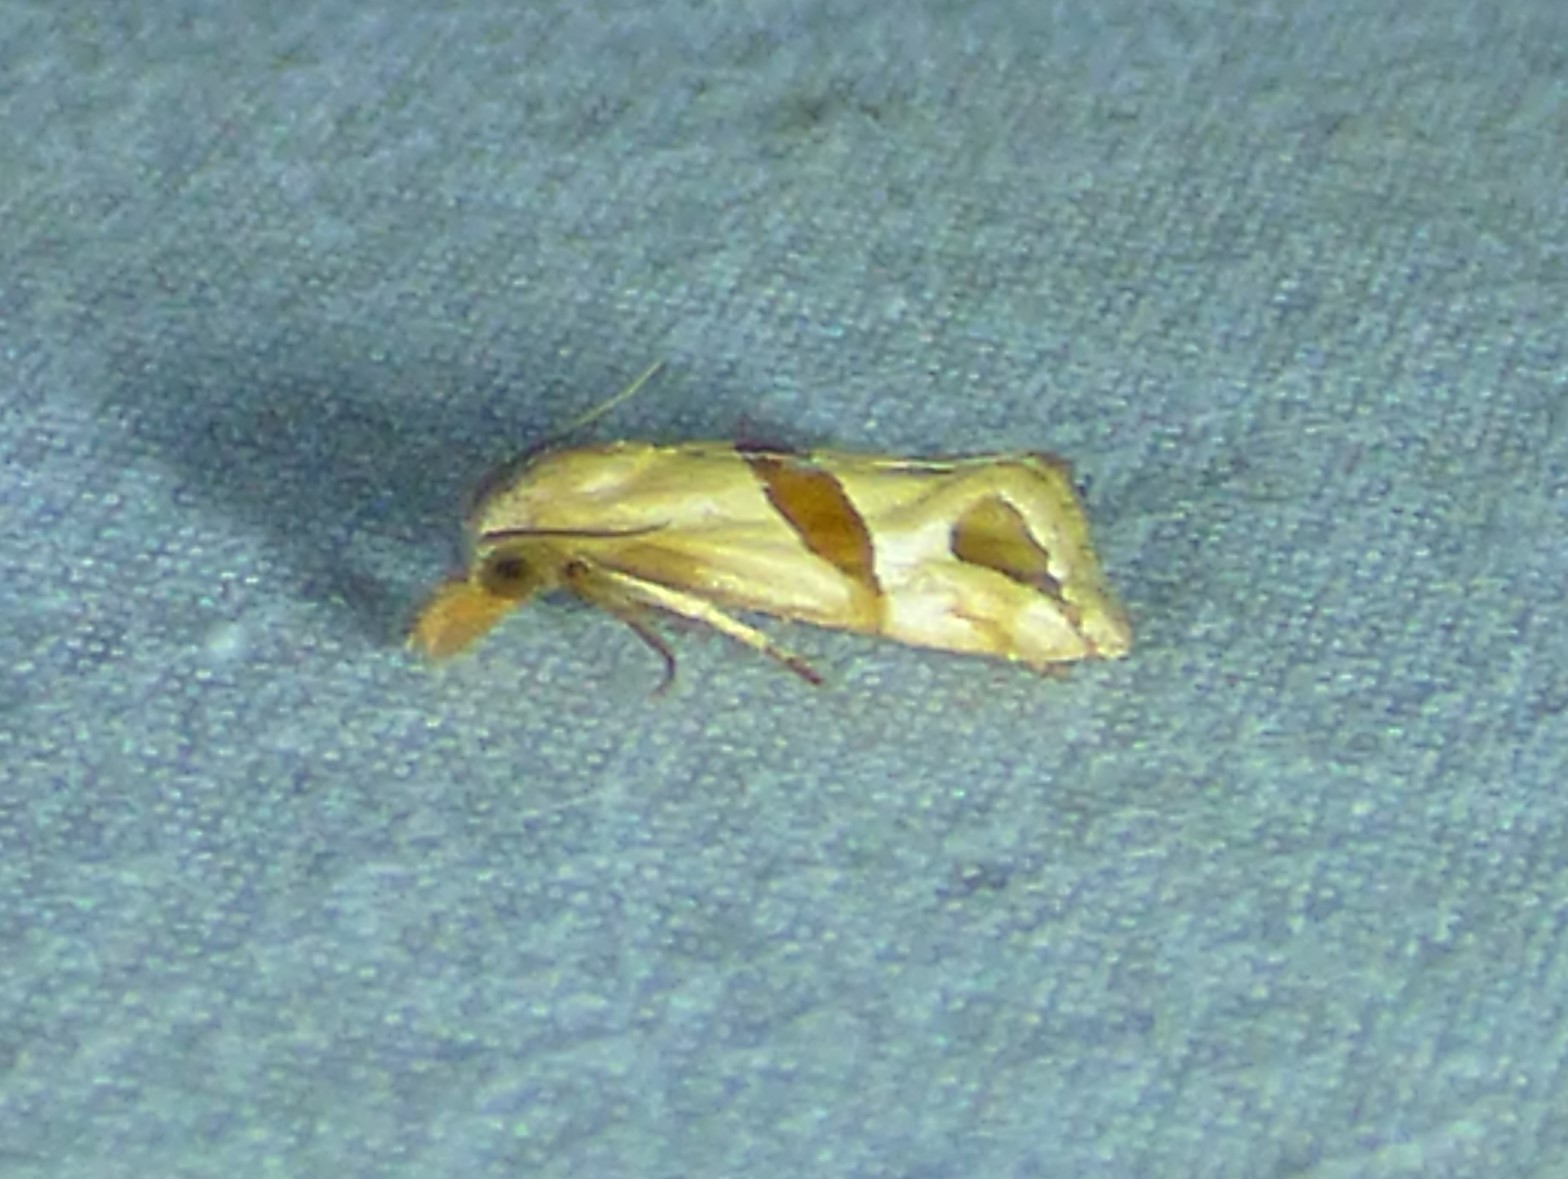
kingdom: Animalia
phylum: Arthropoda
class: Insecta
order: Lepidoptera
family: Tortricidae
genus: Eugnosta
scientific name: Eugnosta sartana
